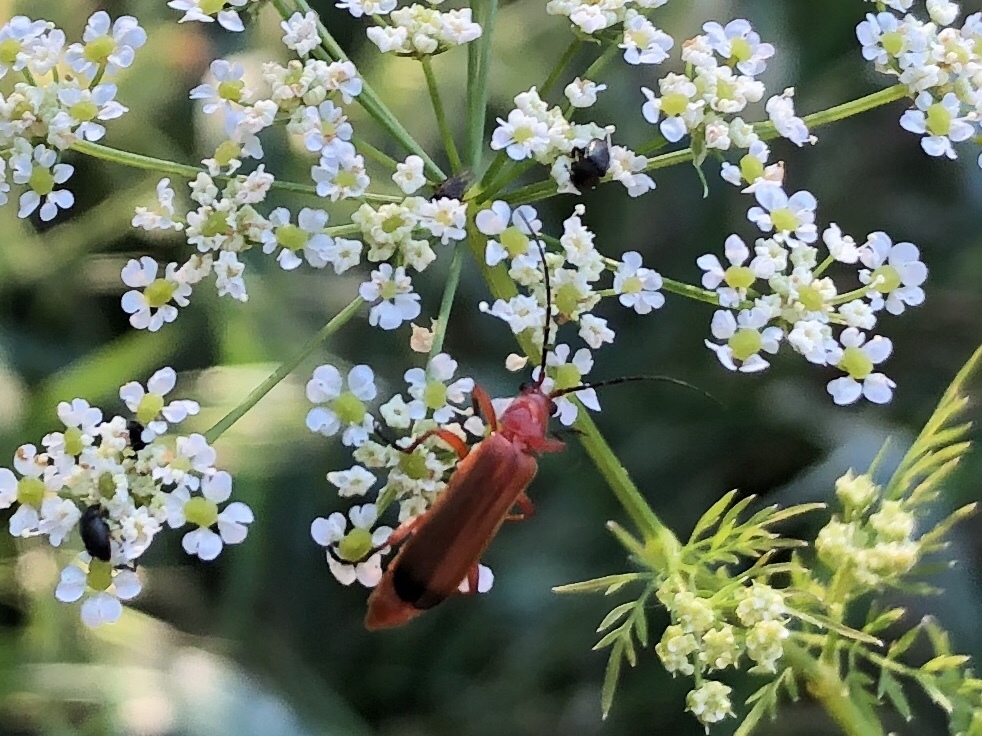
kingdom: Animalia
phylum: Arthropoda
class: Insecta
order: Coleoptera
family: Cantharidae
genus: Rhagonycha
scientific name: Rhagonycha fulva
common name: Common red soldier beetle
